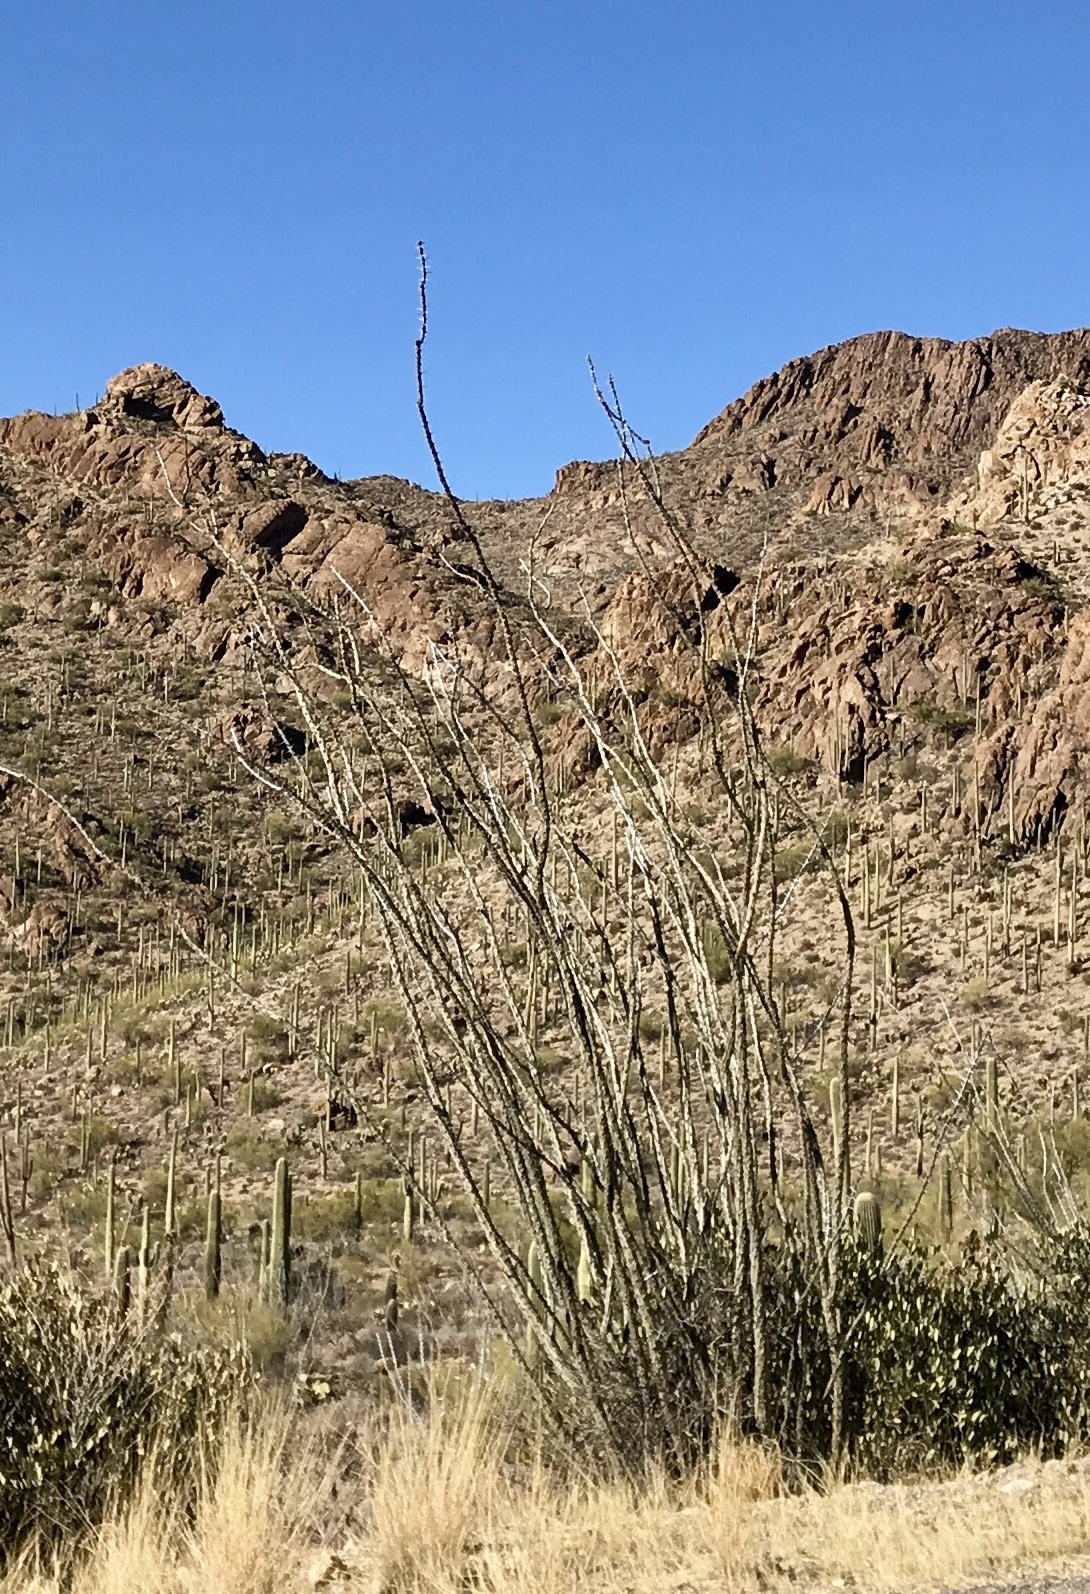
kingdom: Plantae
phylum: Tracheophyta
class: Magnoliopsida
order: Ericales
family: Fouquieriaceae
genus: Fouquieria
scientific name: Fouquieria splendens
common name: Vine-cactus
